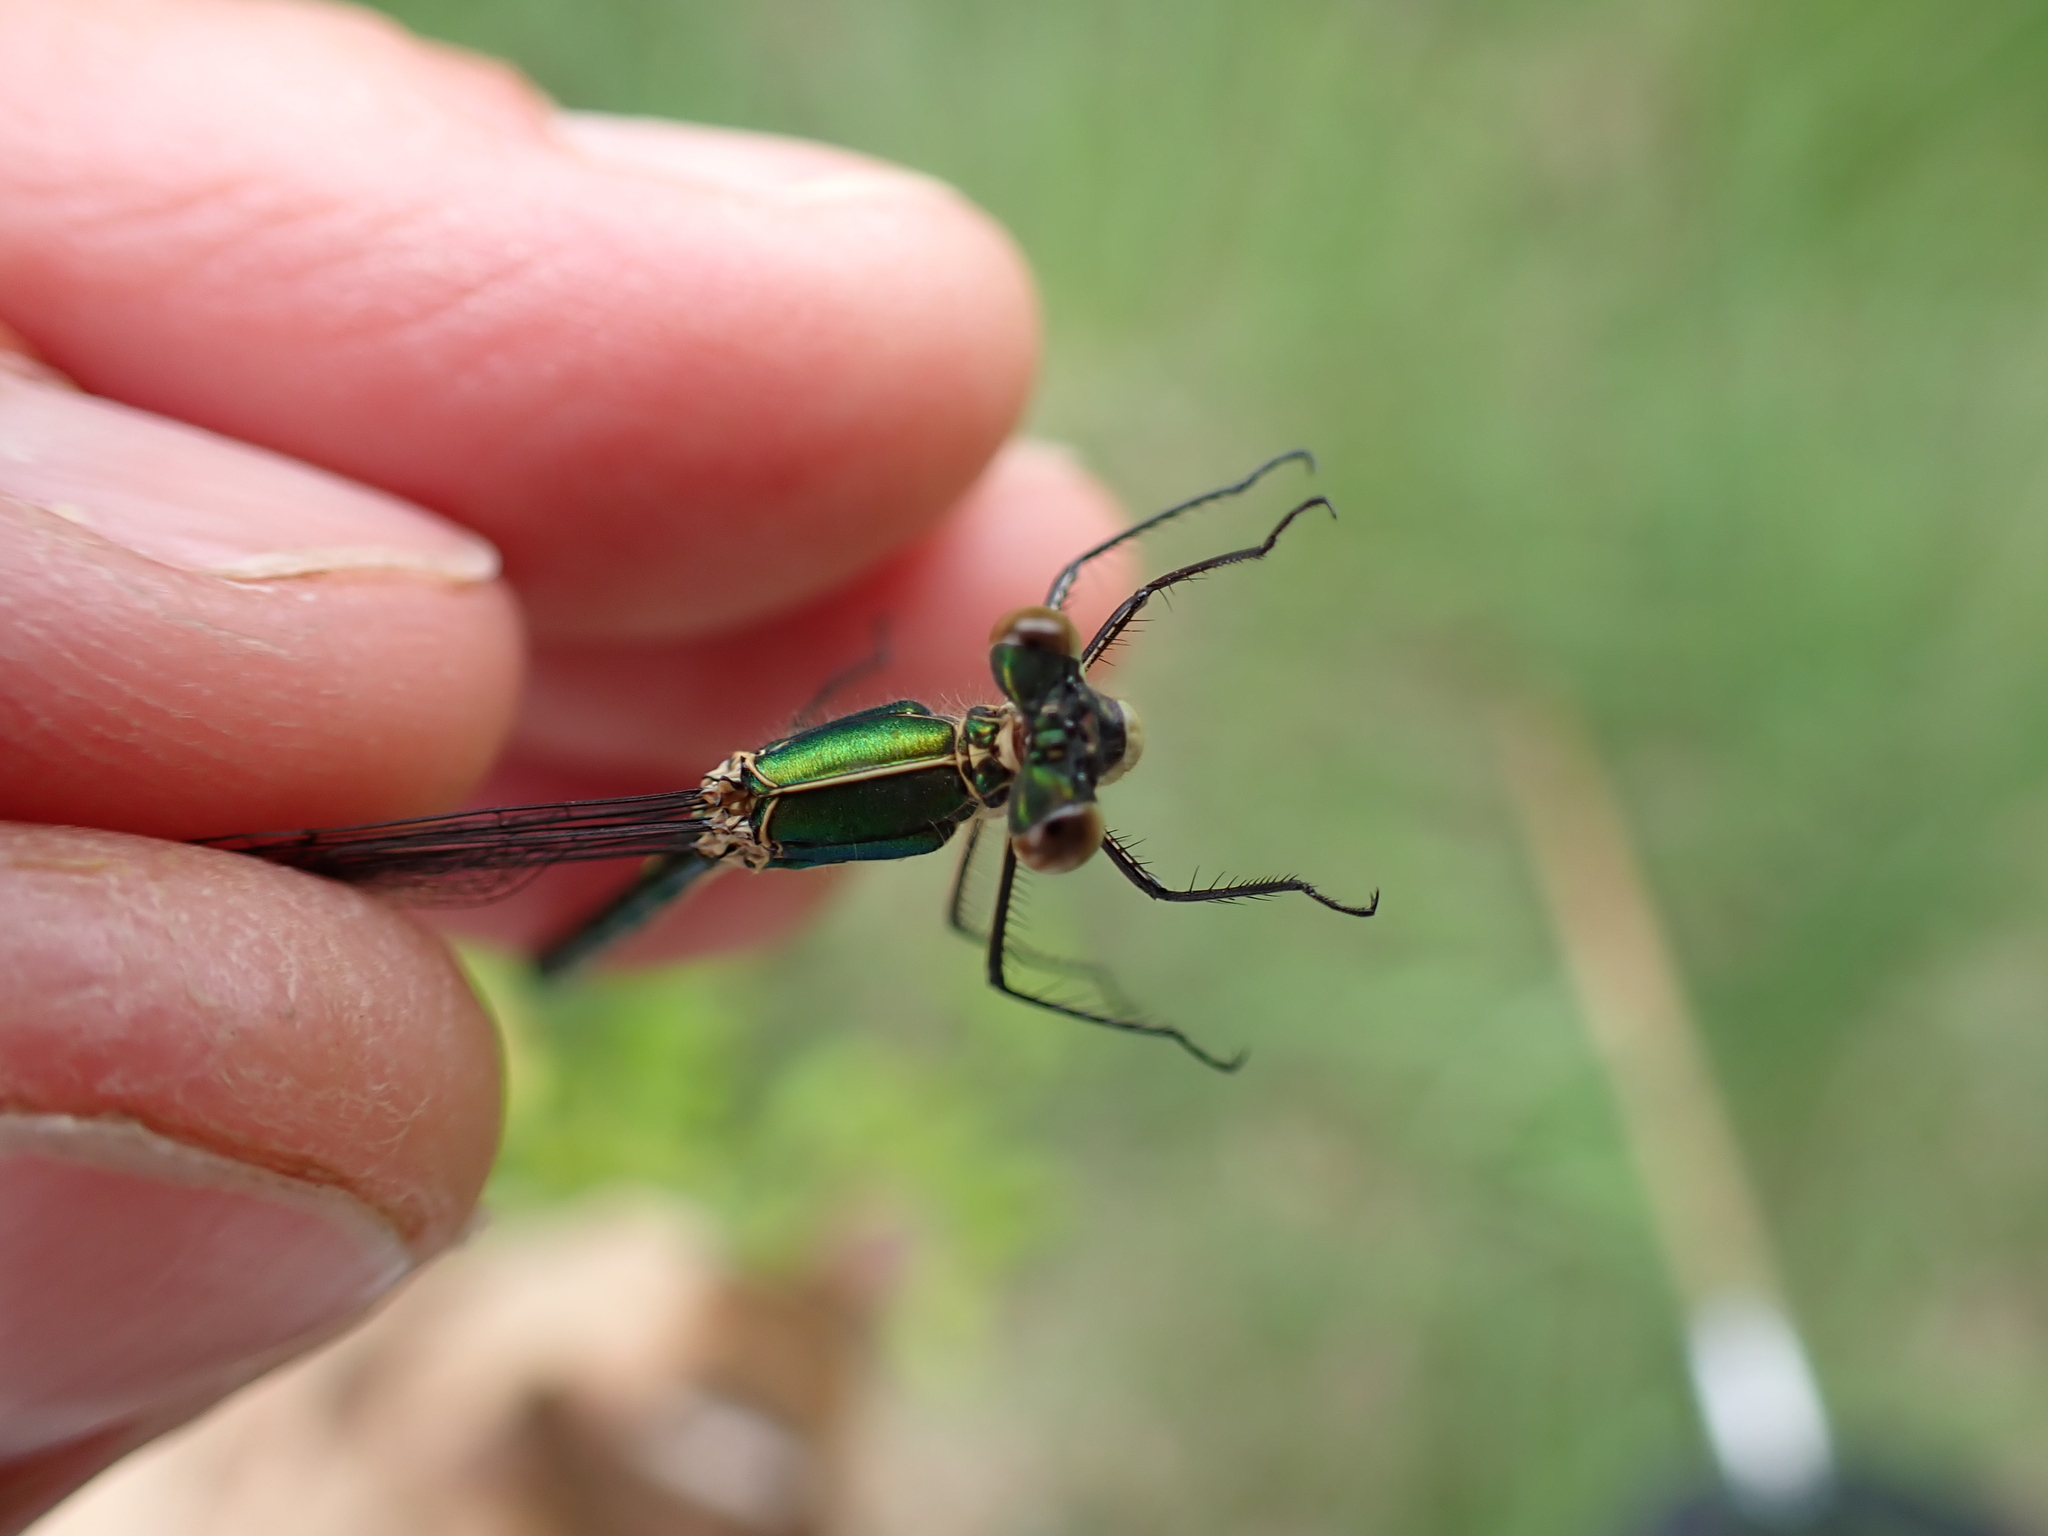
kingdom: Animalia
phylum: Arthropoda
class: Insecta
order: Odonata
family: Lestidae
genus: Lestes
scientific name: Lestes dryas
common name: Scarce emerald damselfly
